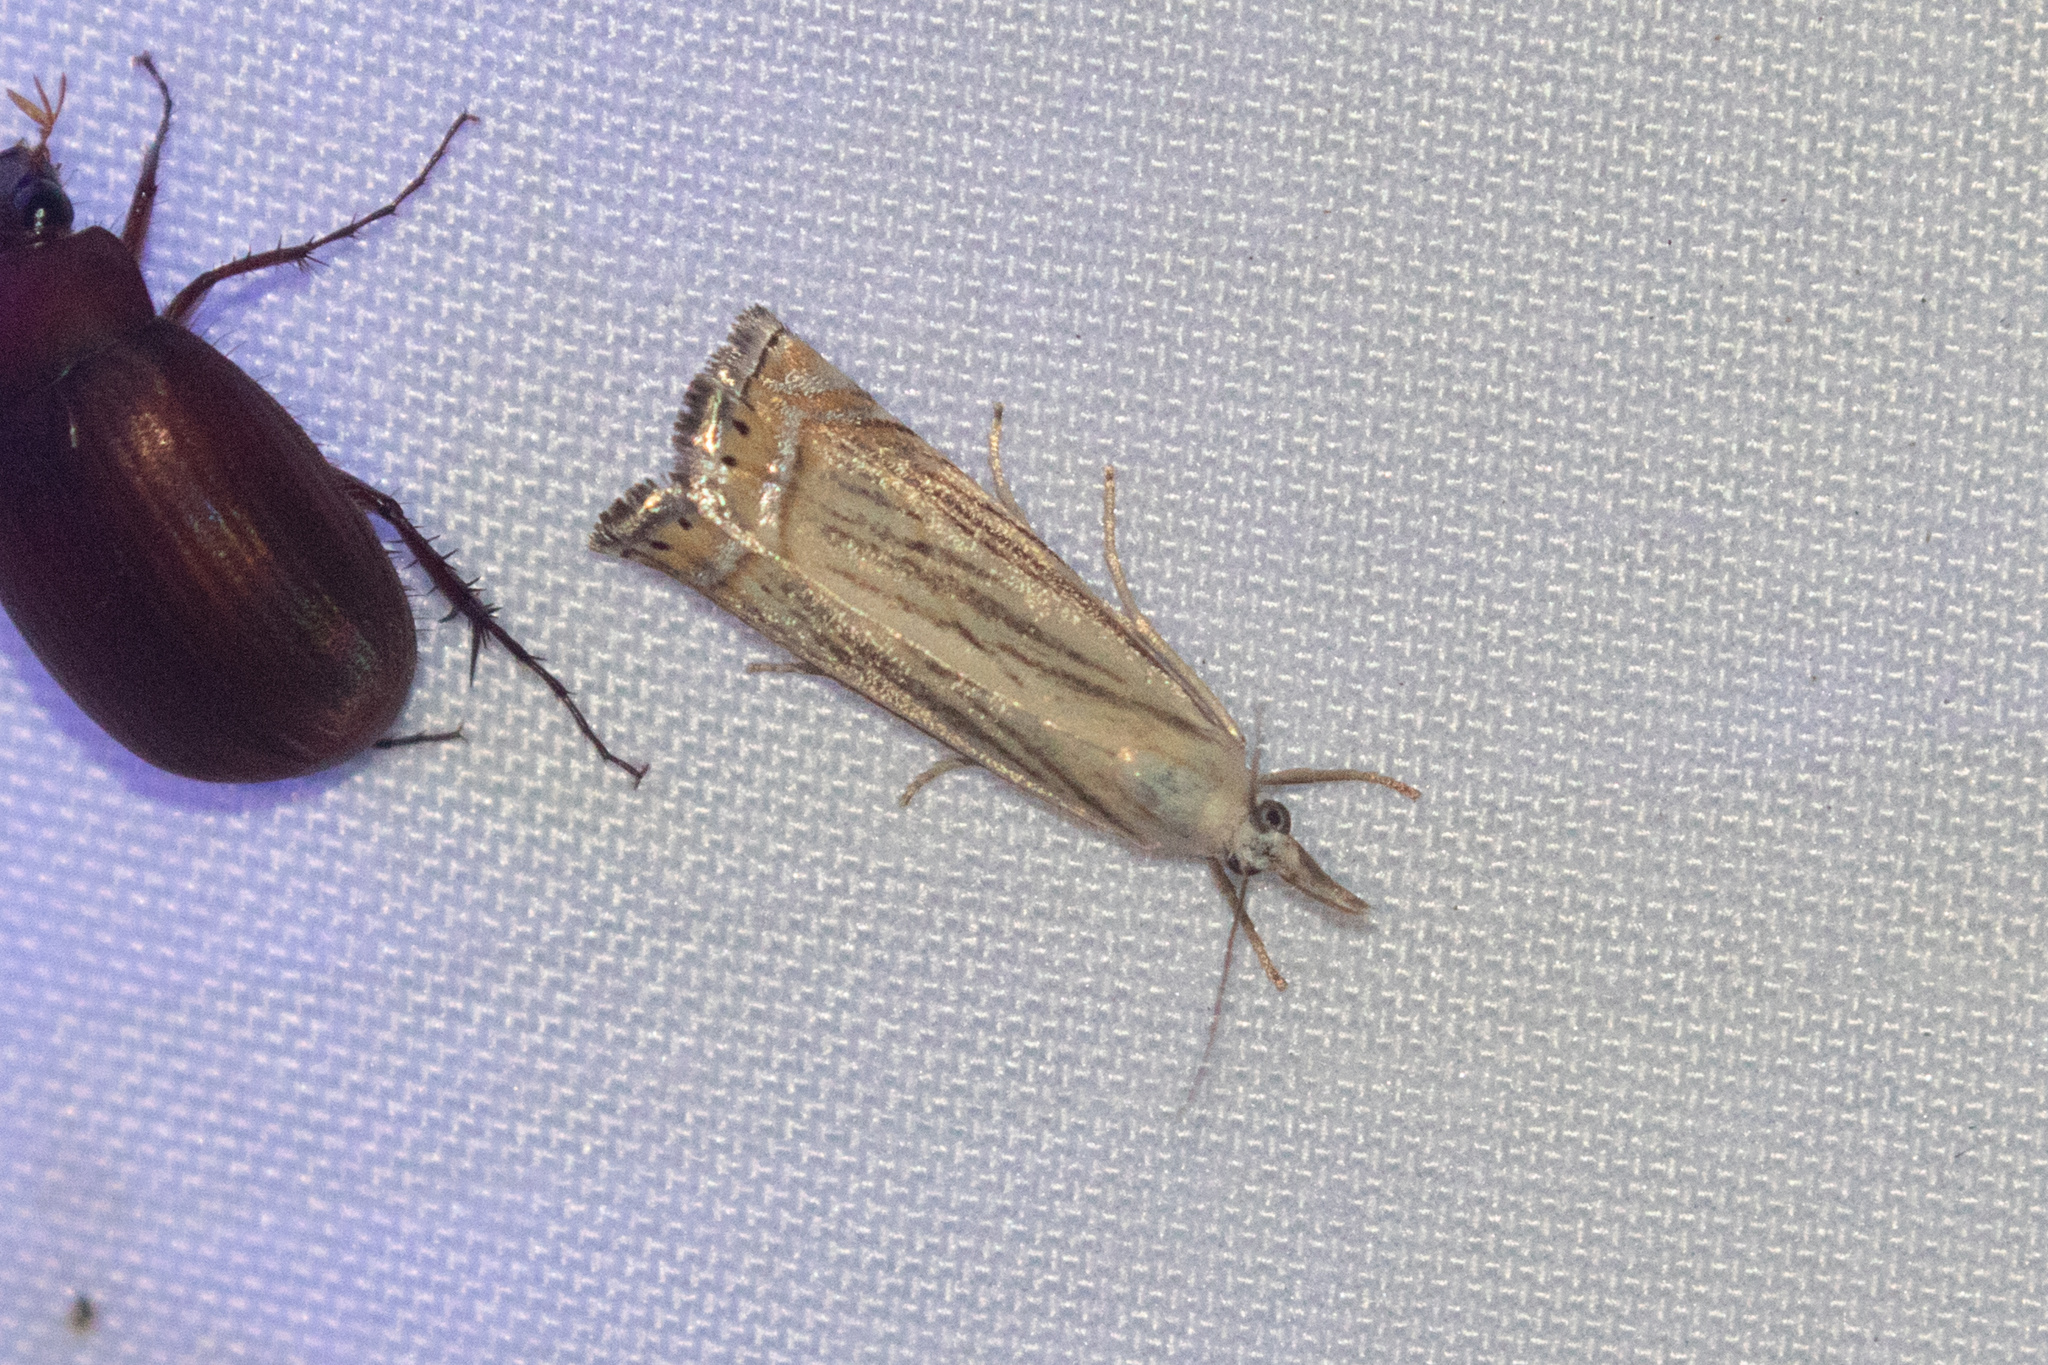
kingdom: Animalia
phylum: Arthropoda
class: Insecta
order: Lepidoptera
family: Crambidae
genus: Chrysoteuchia
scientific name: Chrysoteuchia topiarius
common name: Topiary grass-veneer
